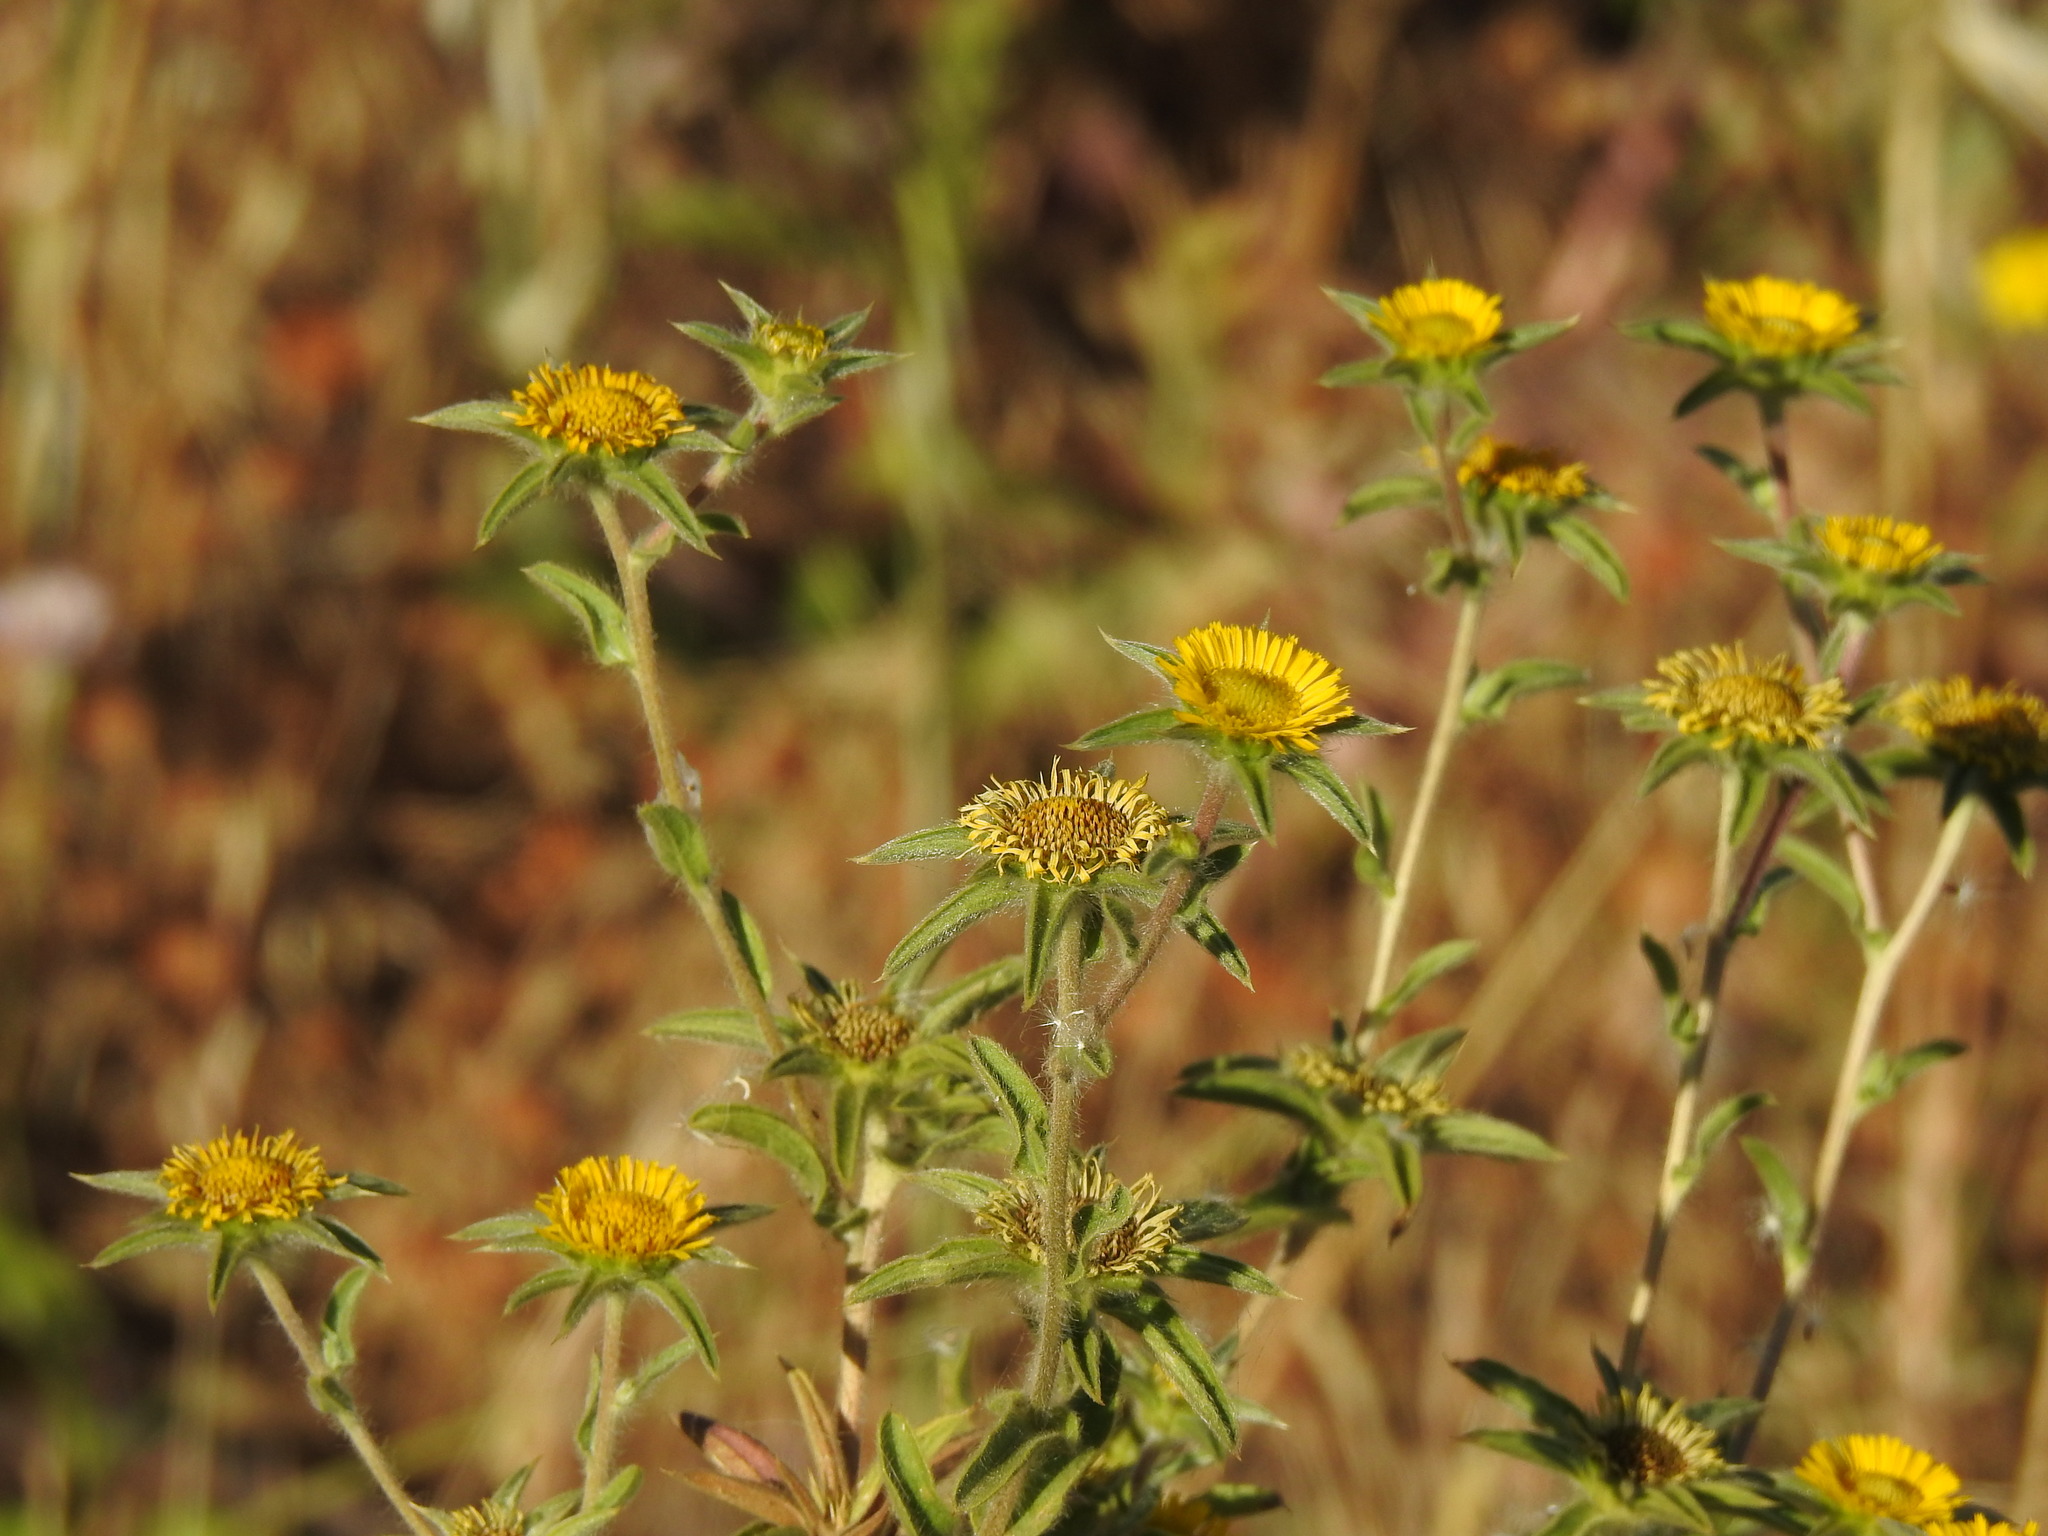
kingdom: Plantae
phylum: Tracheophyta
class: Magnoliopsida
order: Asterales
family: Asteraceae
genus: Pallenis
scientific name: Pallenis spinosa
